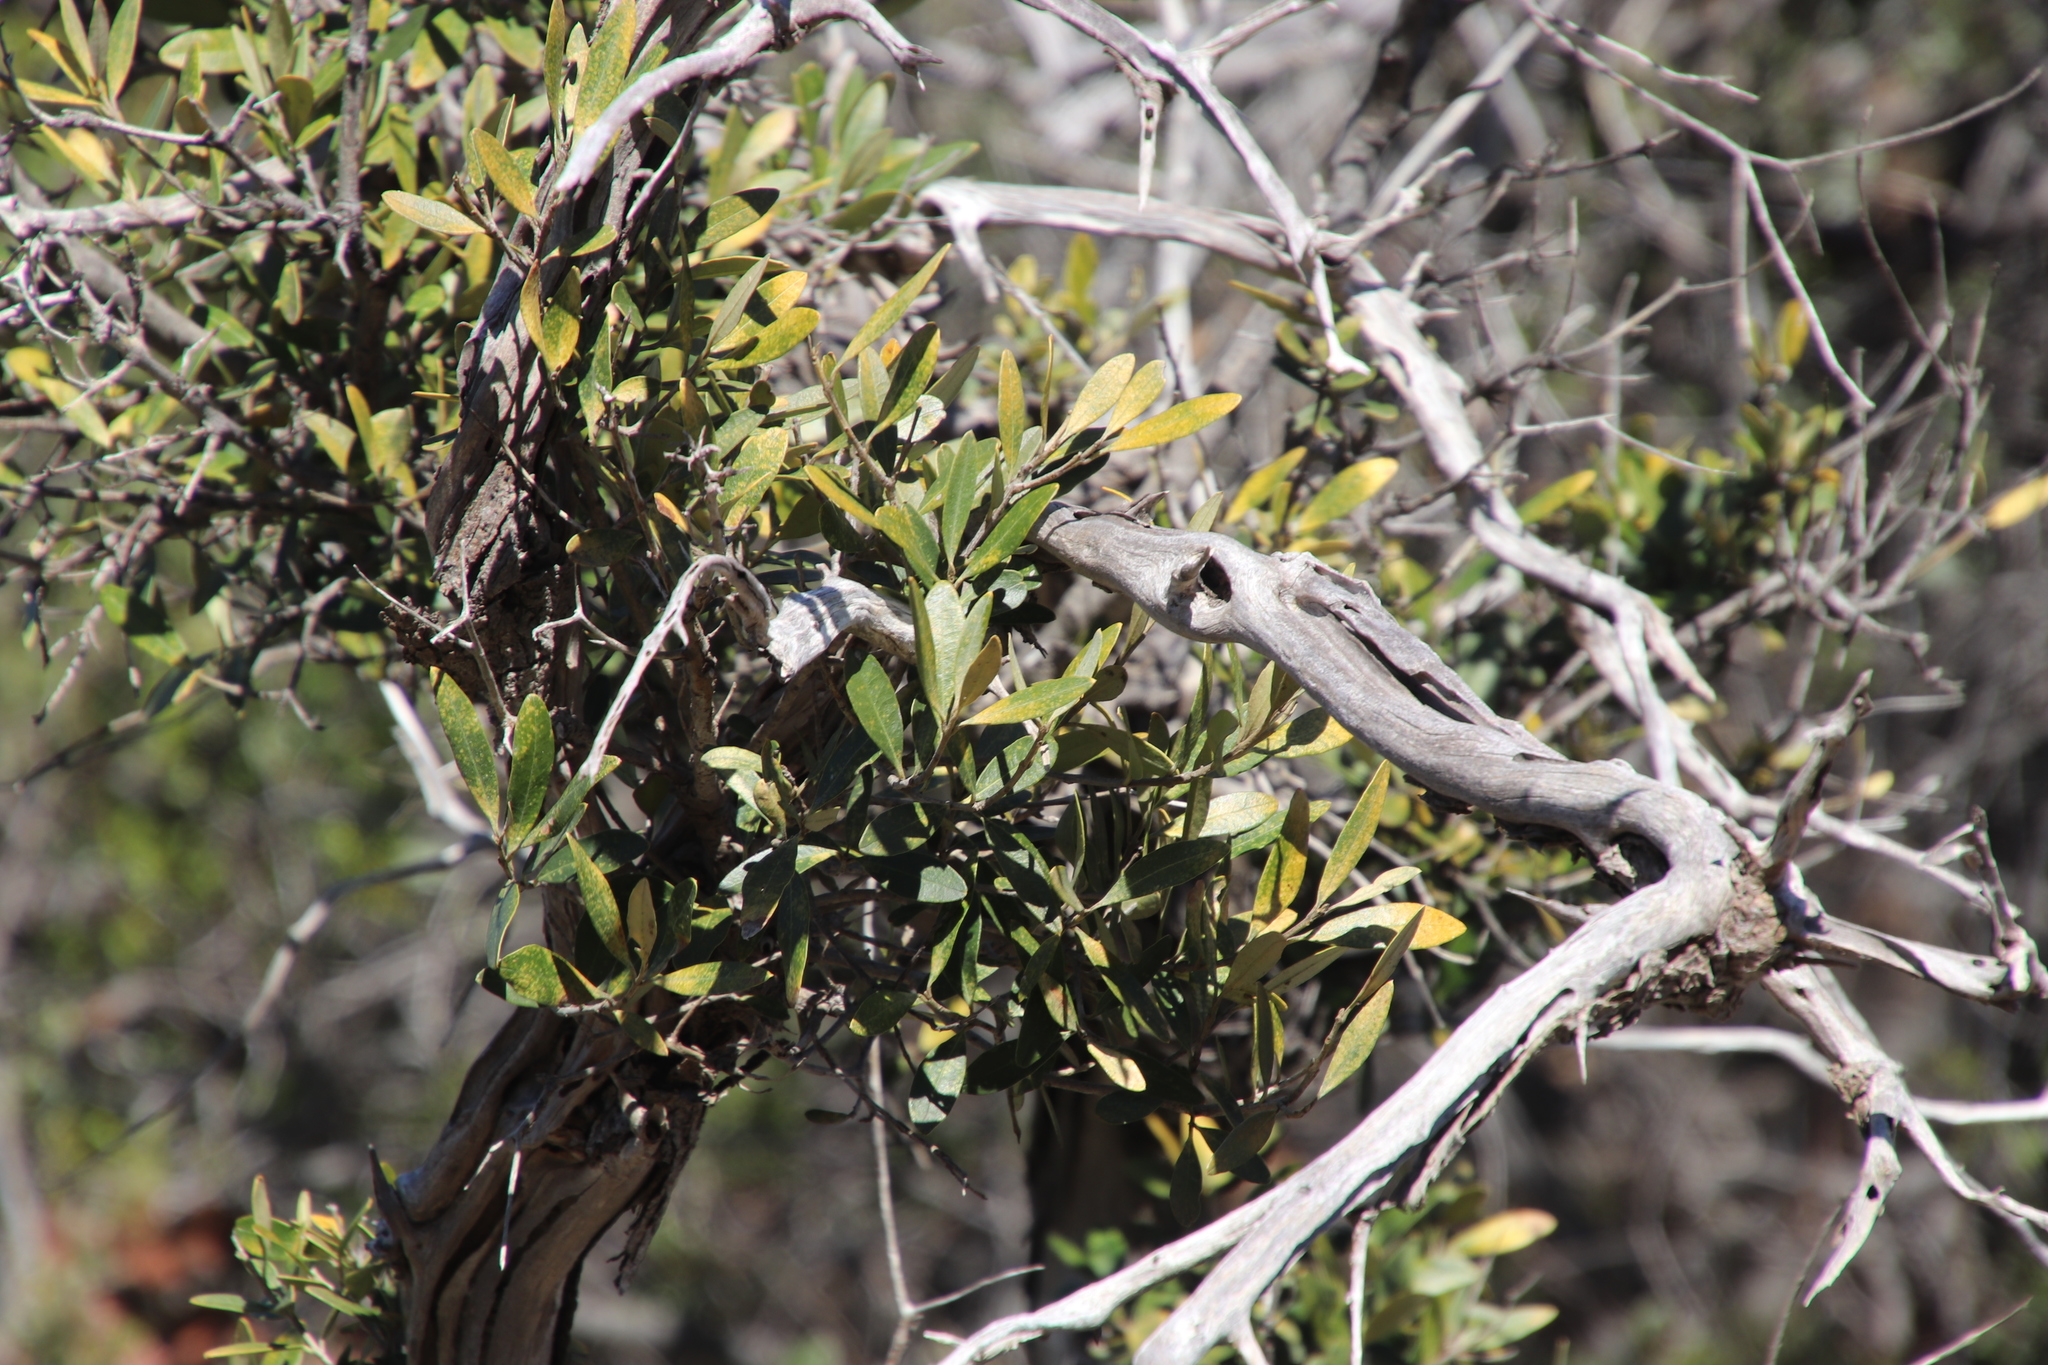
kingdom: Plantae
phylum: Tracheophyta
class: Magnoliopsida
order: Lamiales
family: Oleaceae
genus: Olea
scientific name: Olea europaea
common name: Olive
